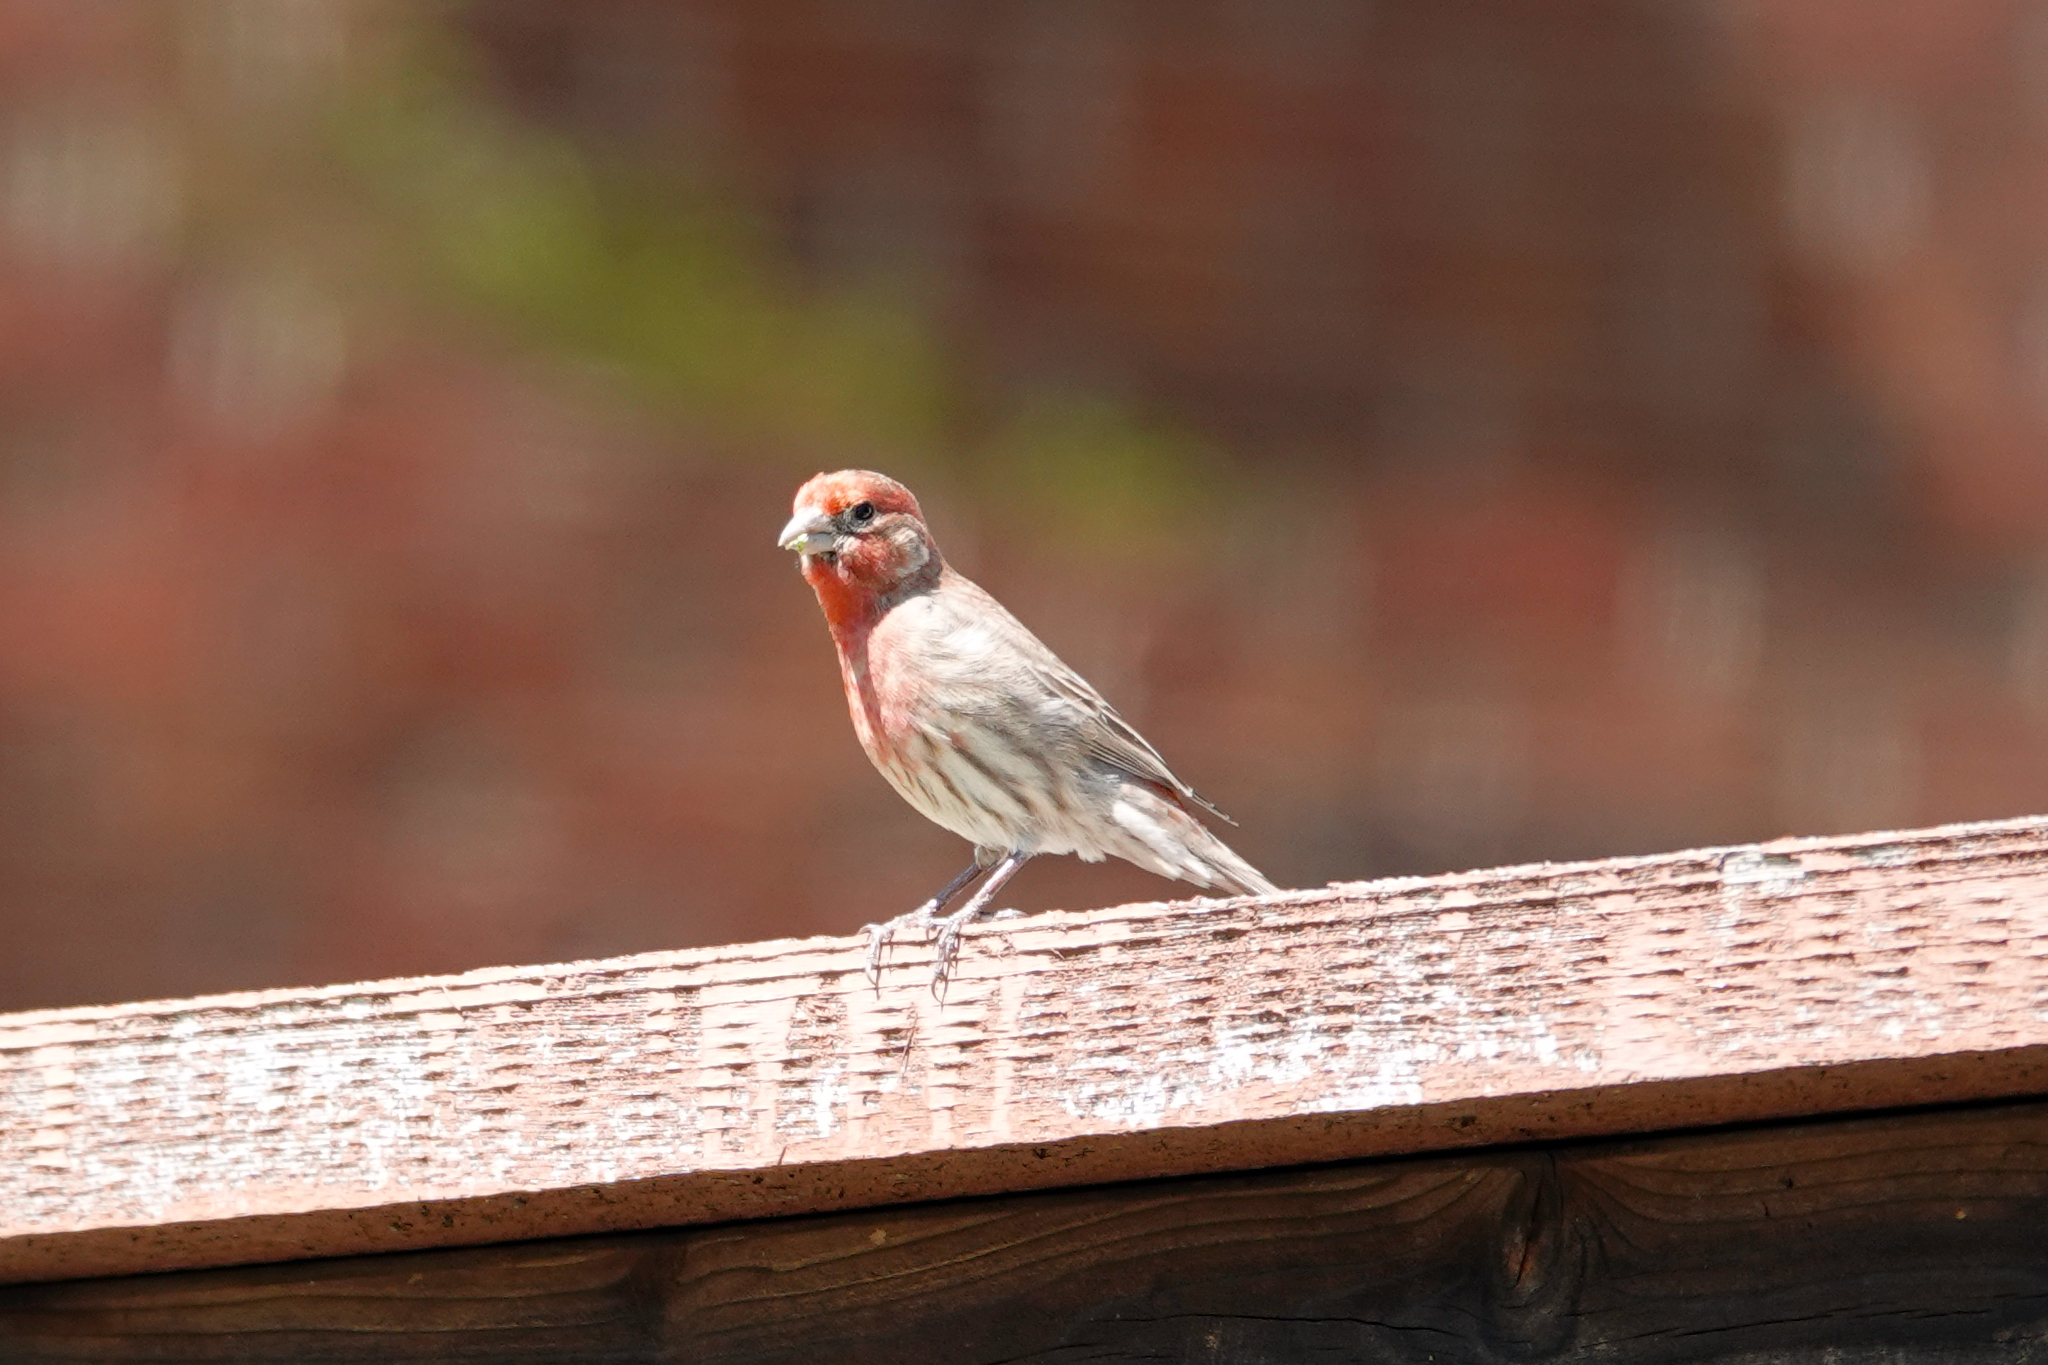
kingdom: Animalia
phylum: Chordata
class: Aves
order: Passeriformes
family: Fringillidae
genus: Haemorhous
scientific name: Haemorhous mexicanus
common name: House finch
